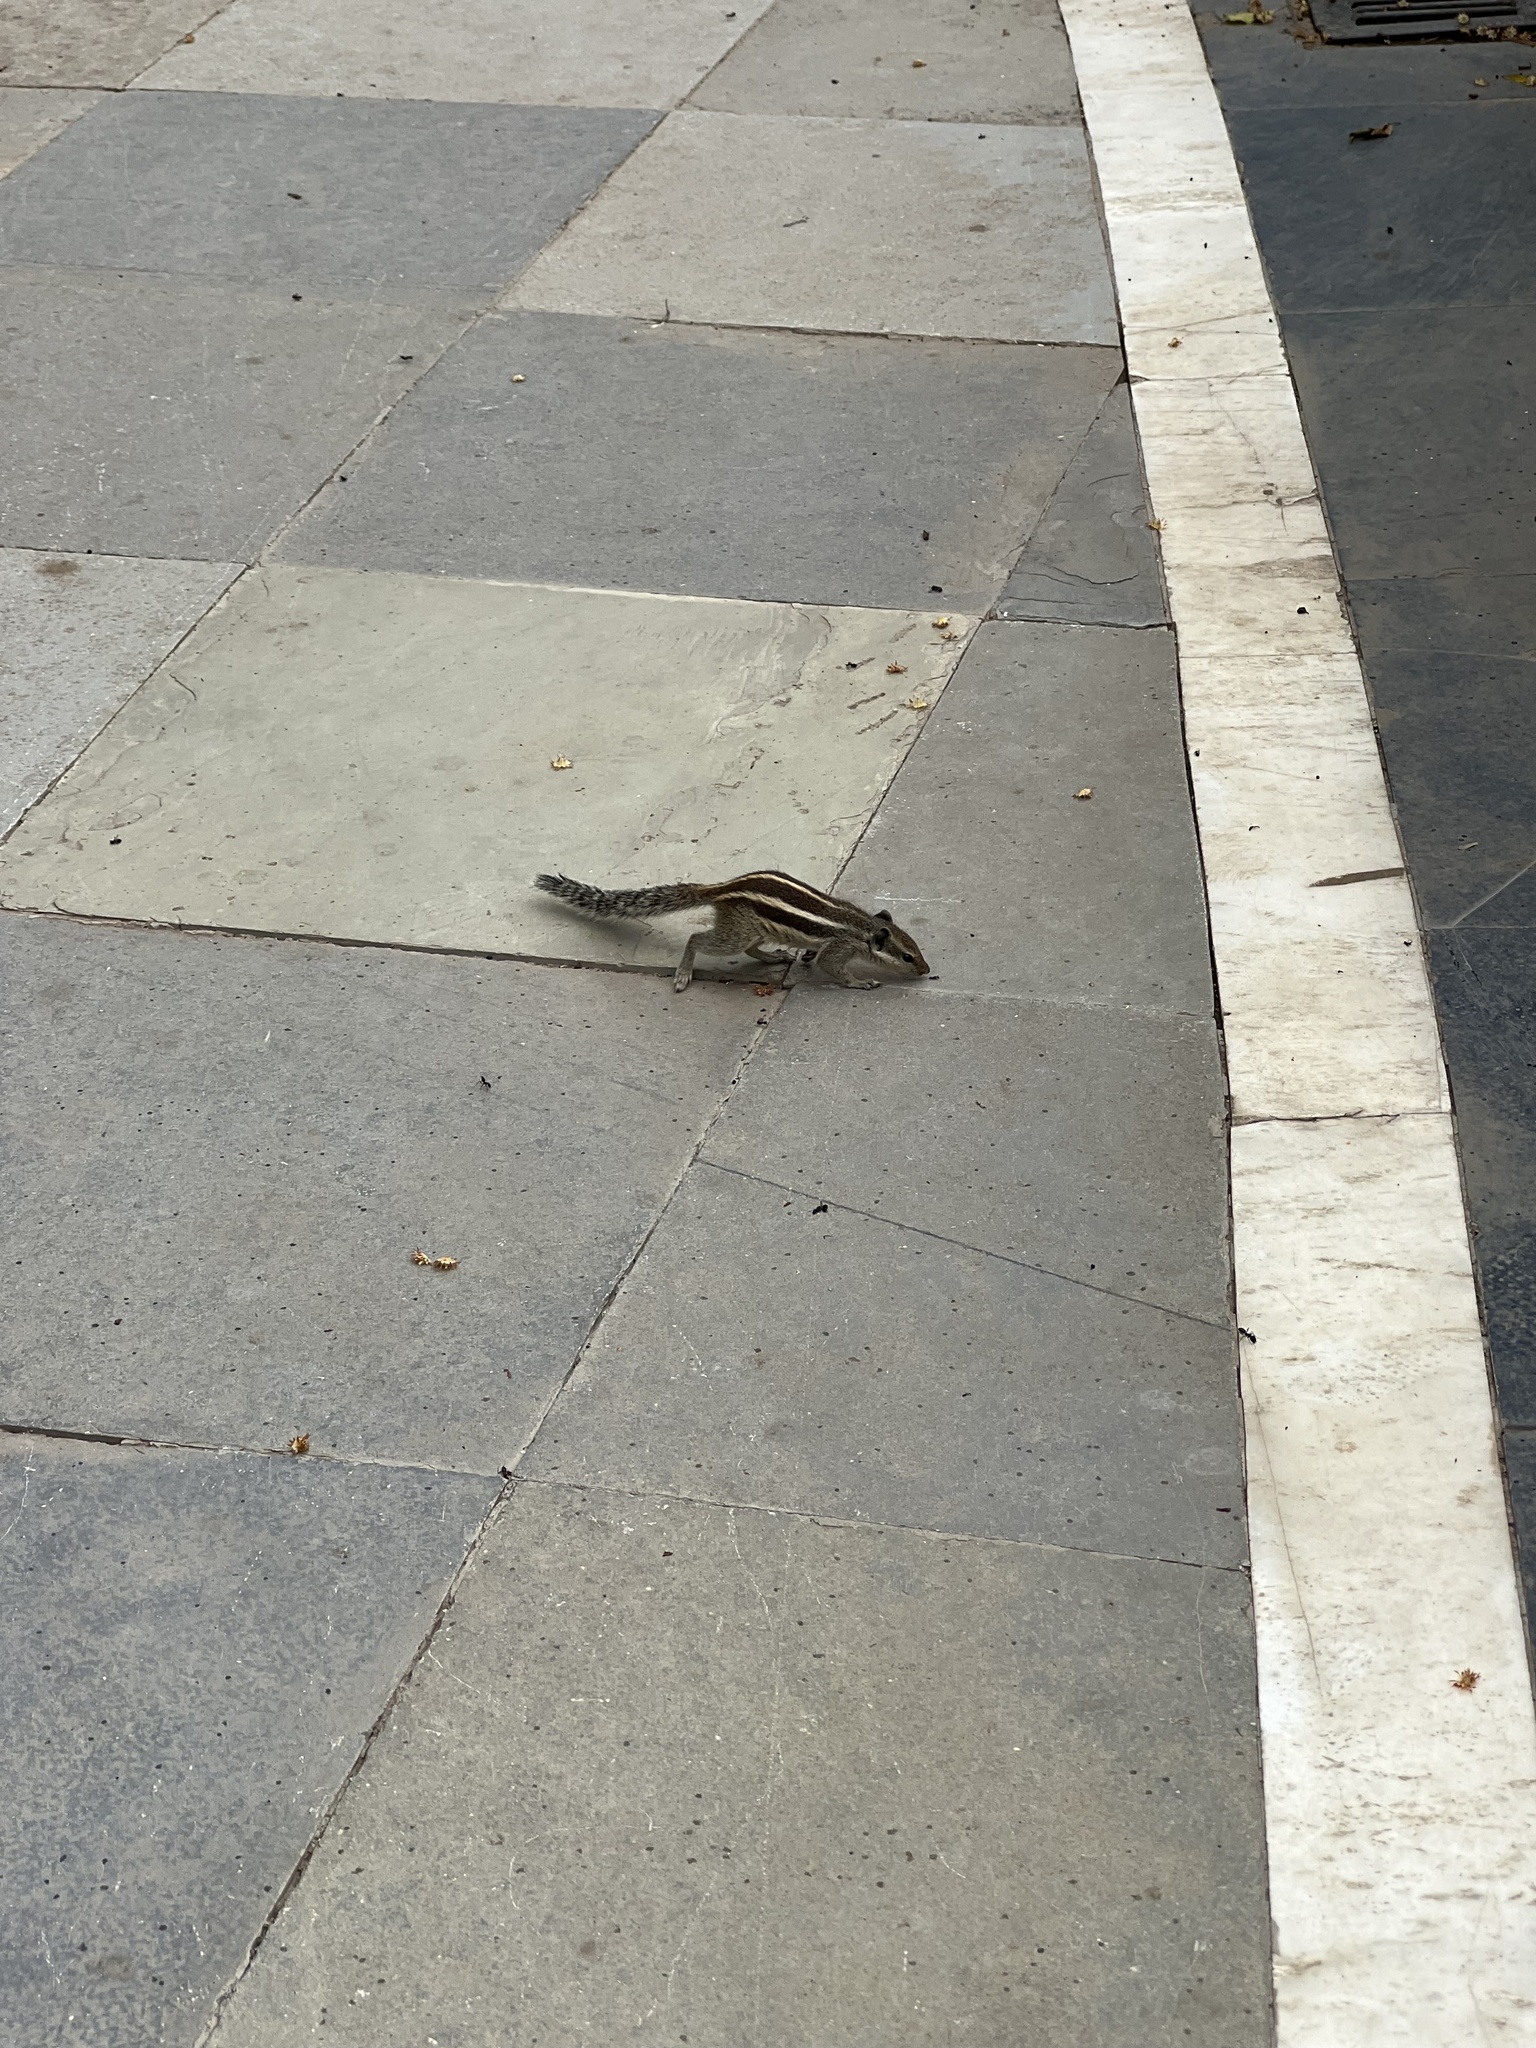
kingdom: Animalia
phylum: Chordata
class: Mammalia
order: Rodentia
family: Sciuridae
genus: Funambulus
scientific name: Funambulus pennantii
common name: Northern palm squirrel
